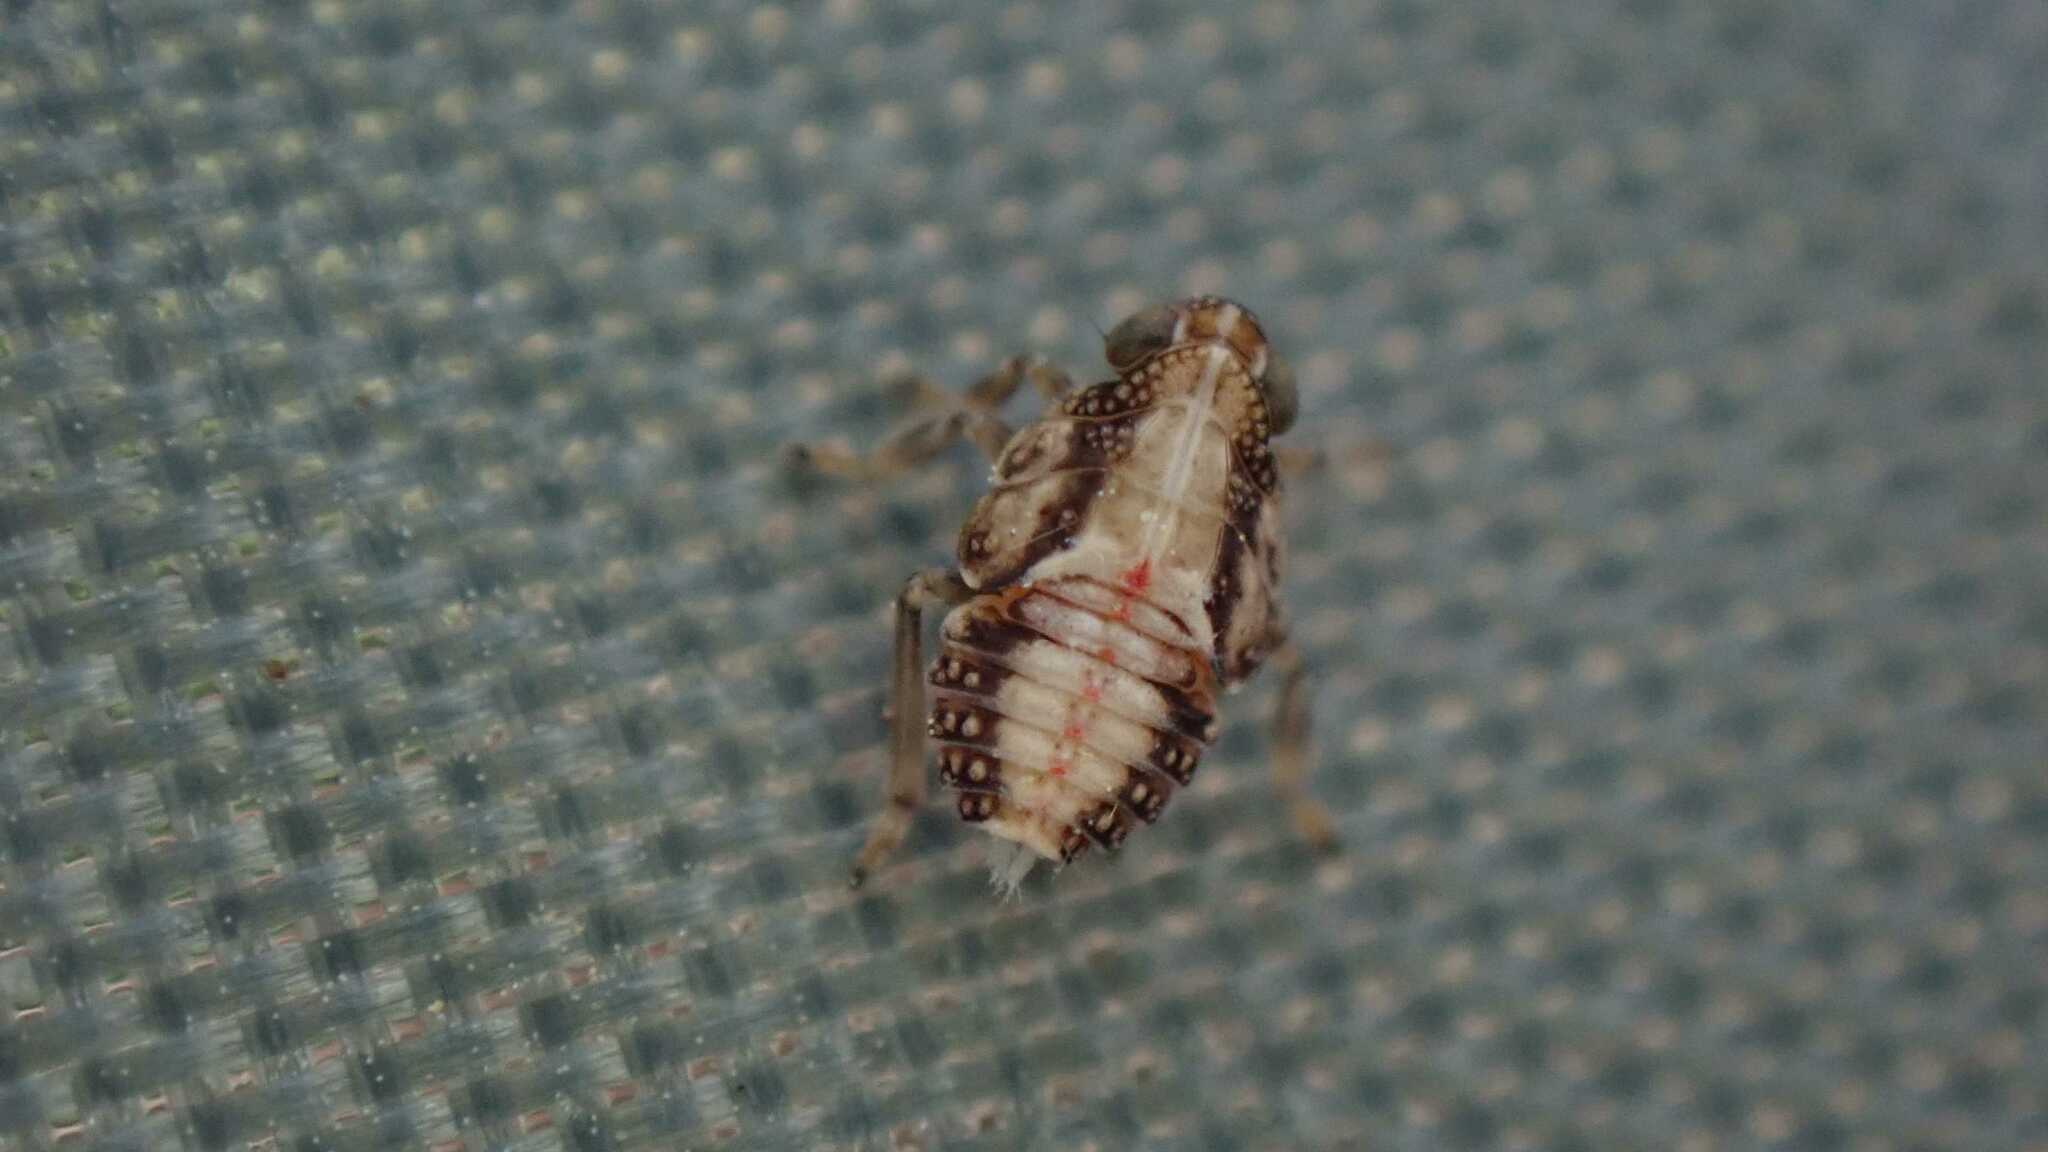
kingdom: Animalia
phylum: Arthropoda
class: Insecta
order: Hemiptera
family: Issidae
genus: Issus
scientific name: Issus coleoptratus
